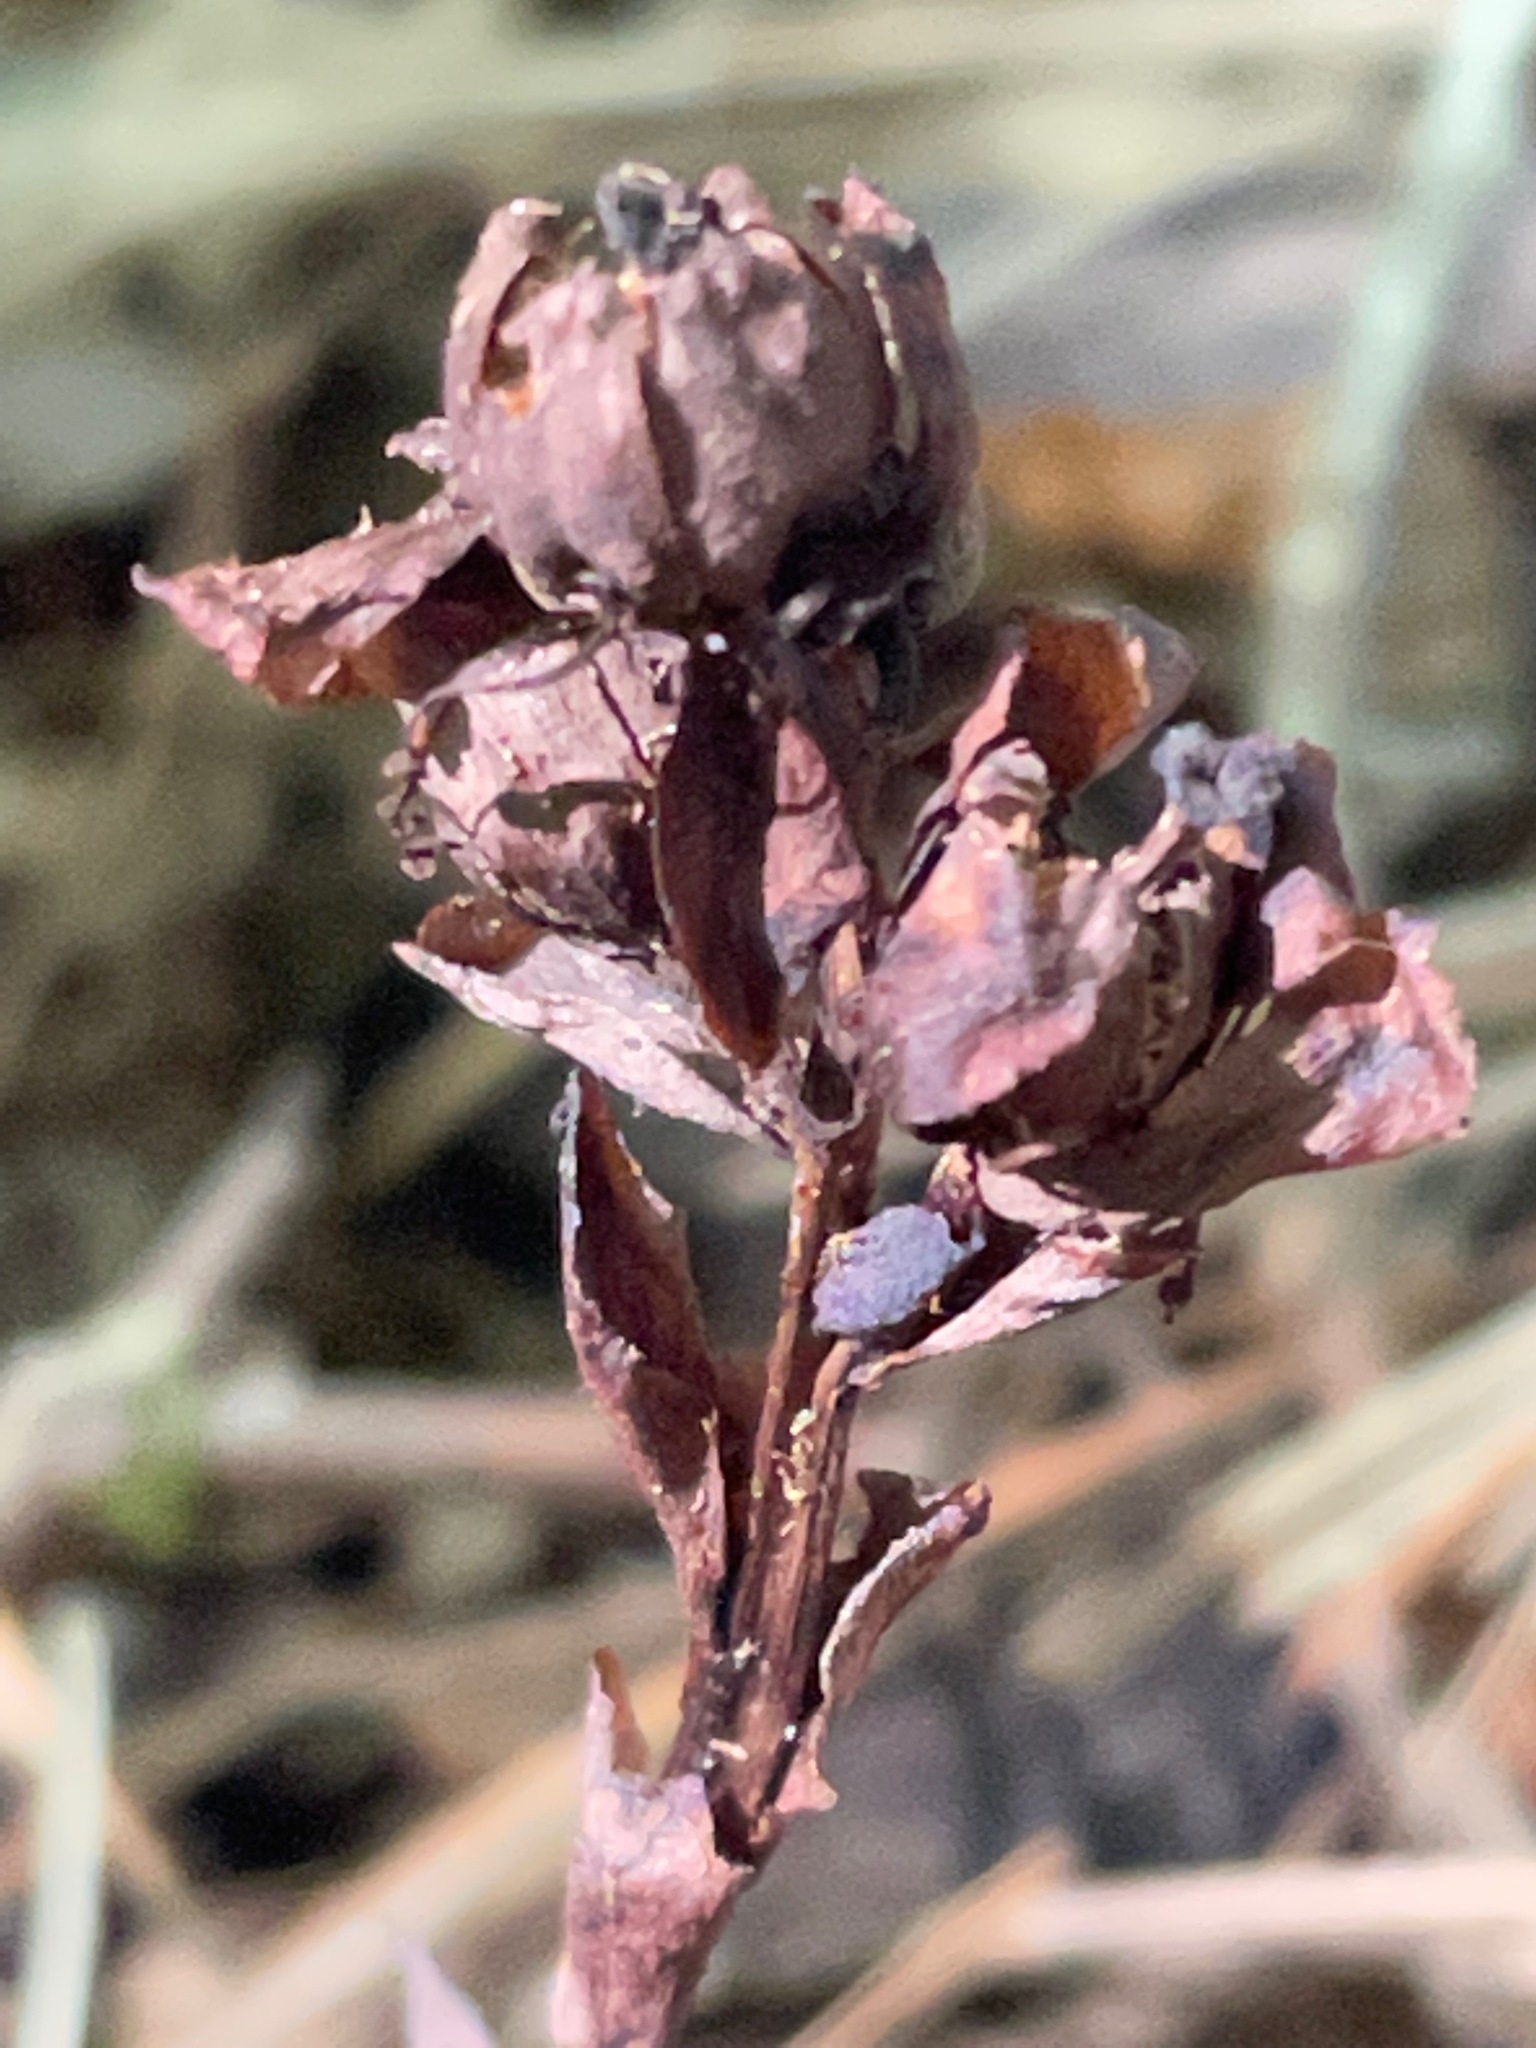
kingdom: Plantae
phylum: Tracheophyta
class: Magnoliopsida
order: Ericales
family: Ericaceae
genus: Monotropa
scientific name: Monotropa uniflora
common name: Convulsion root
